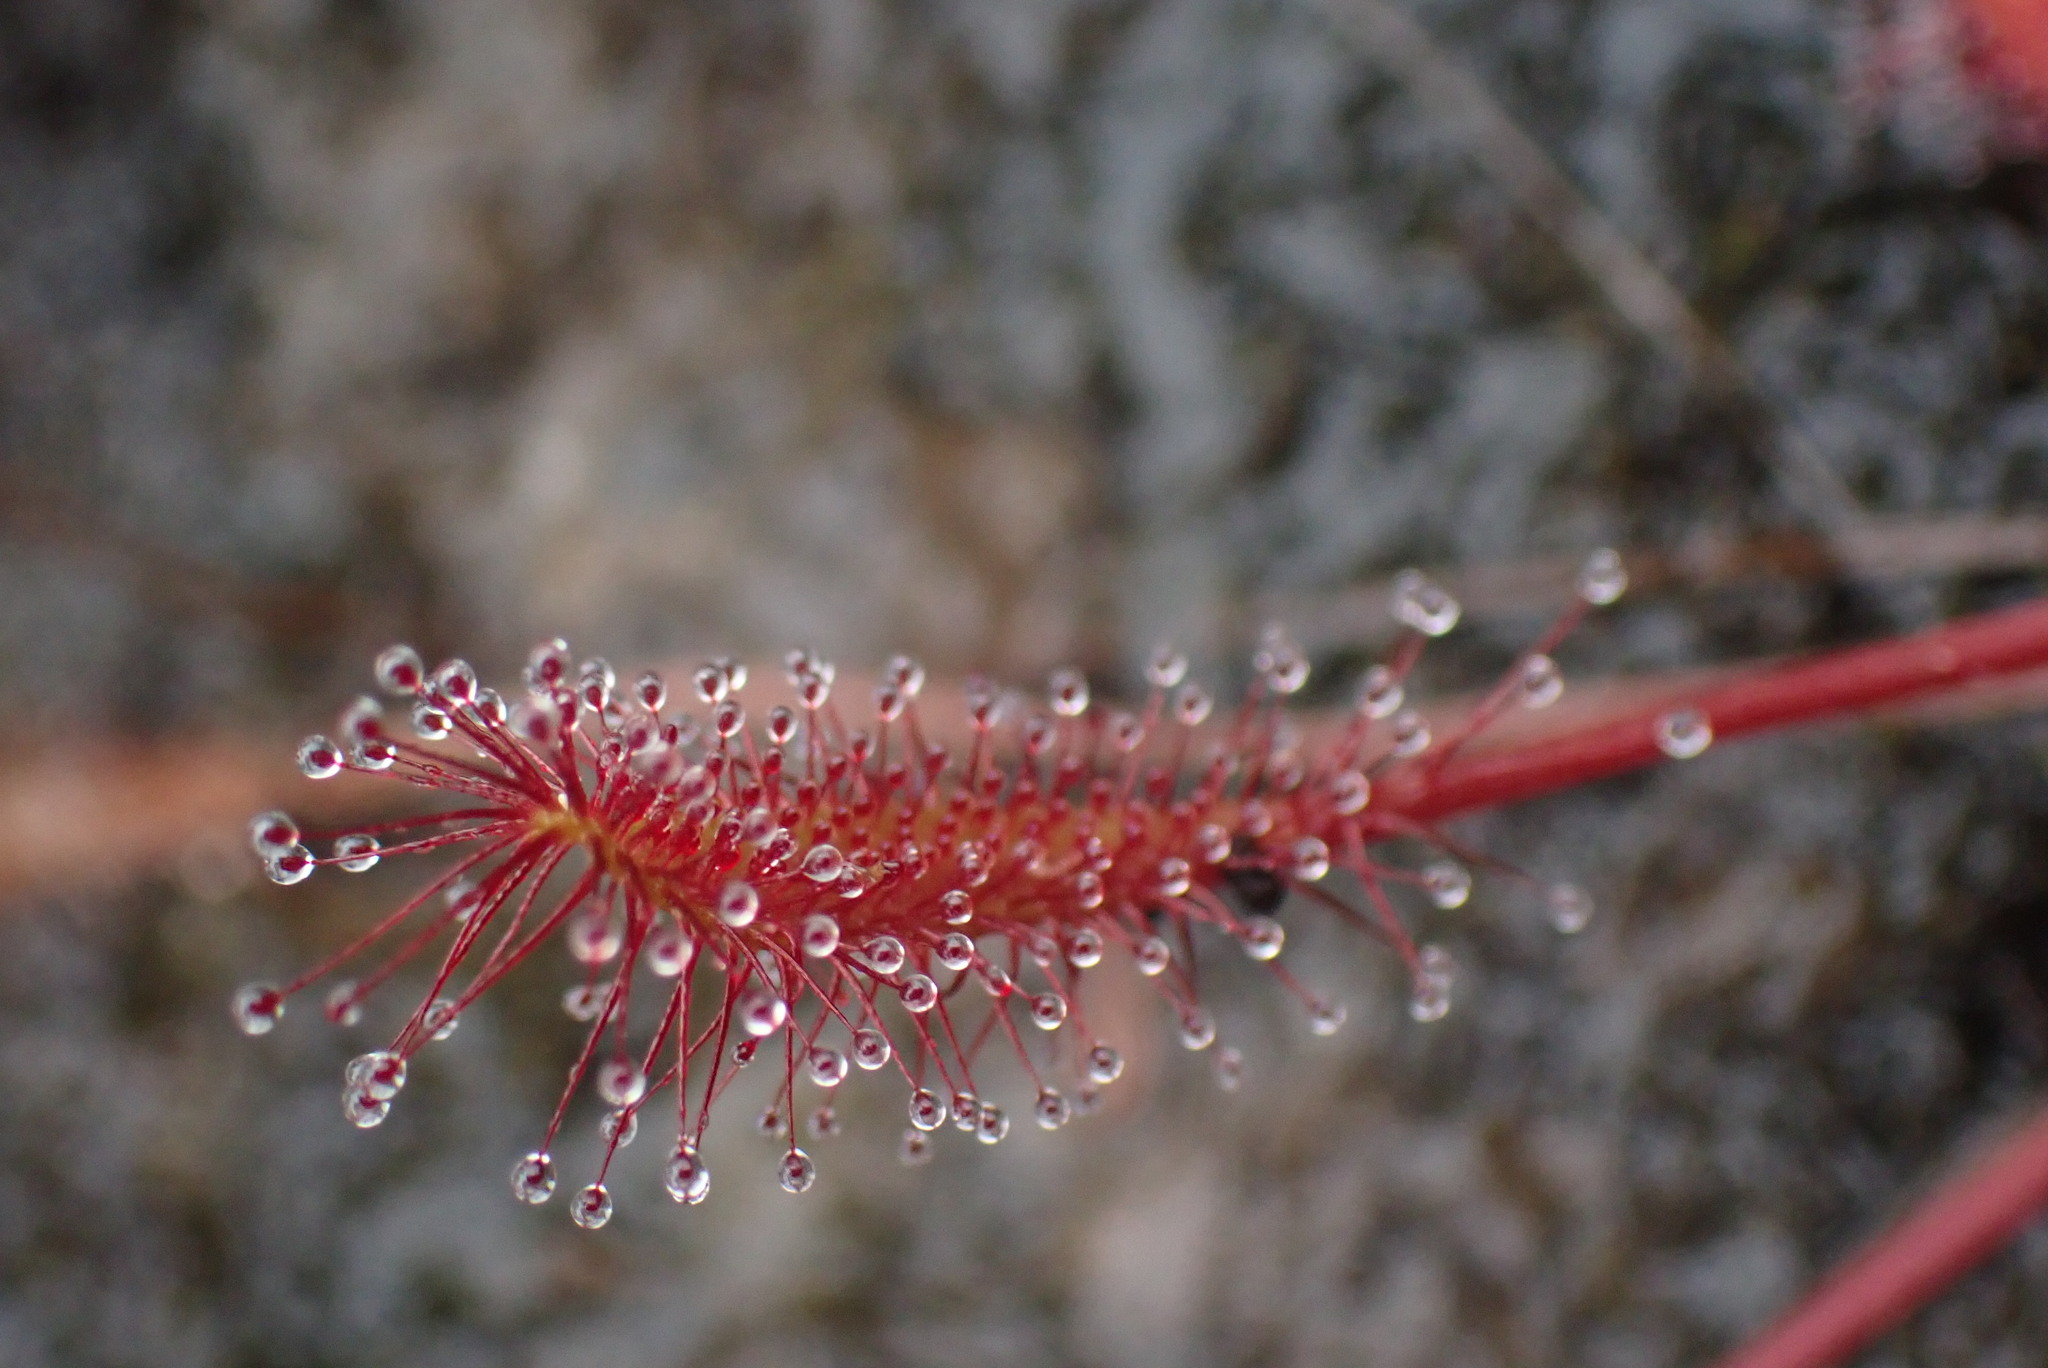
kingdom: Plantae
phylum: Tracheophyta
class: Magnoliopsida
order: Caryophyllales
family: Droseraceae
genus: Drosera
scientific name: Drosera anglica
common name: Great sundew
